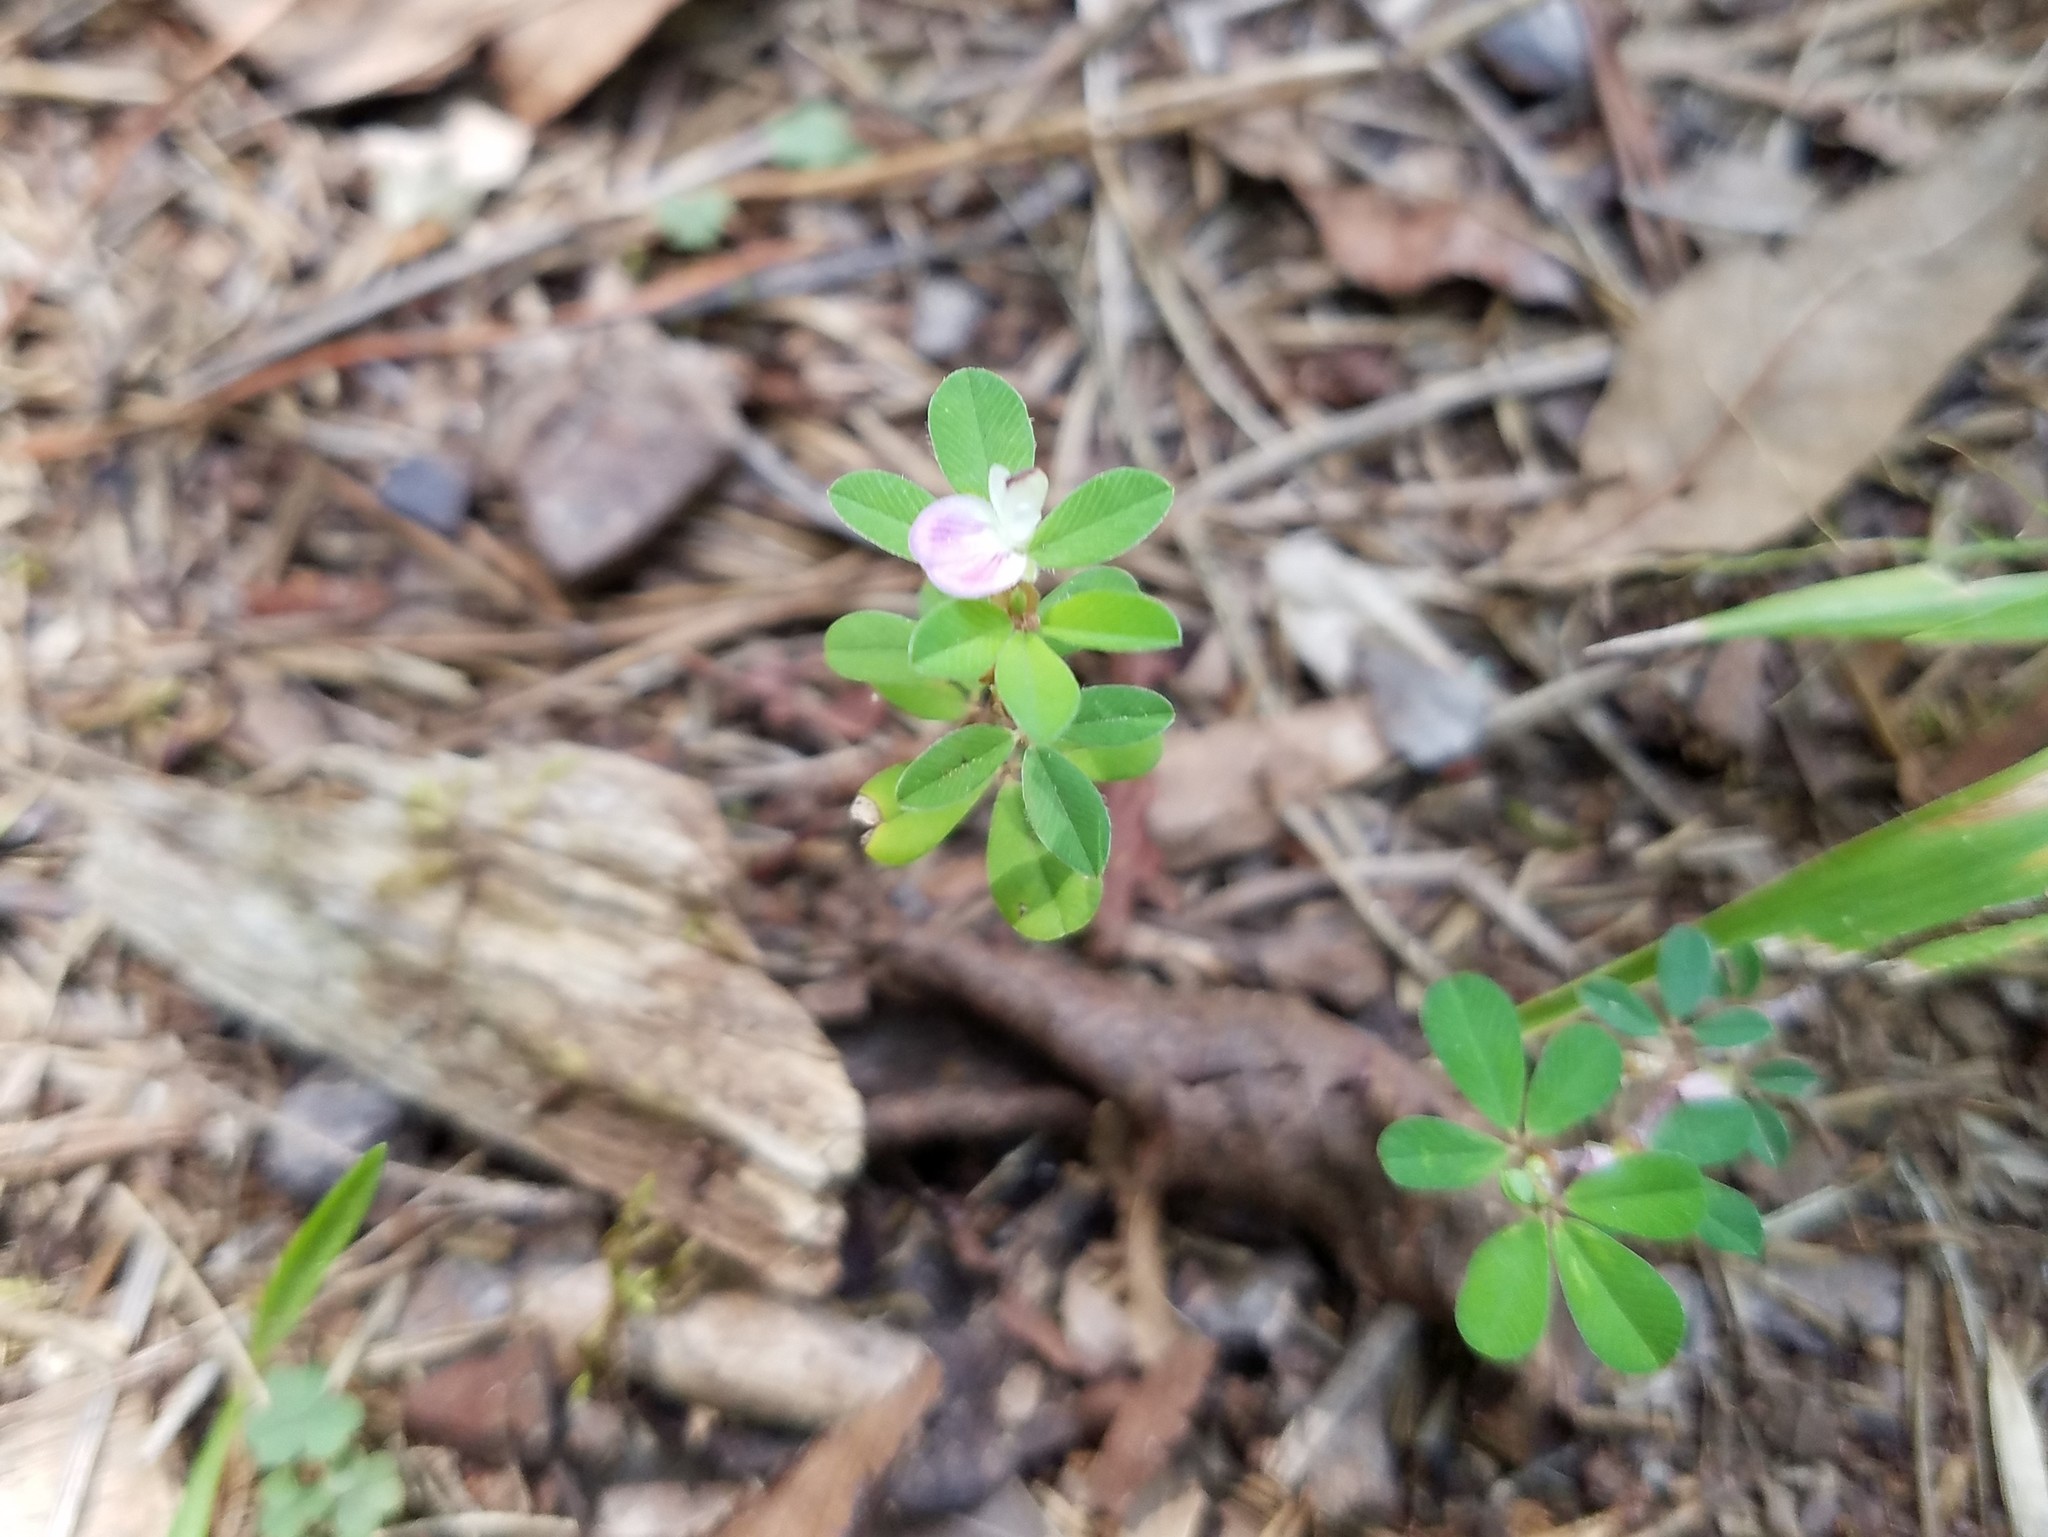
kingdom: Plantae
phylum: Tracheophyta
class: Magnoliopsida
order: Fabales
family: Fabaceae
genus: Kummerowia
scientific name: Kummerowia striata
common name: Japanese clover
